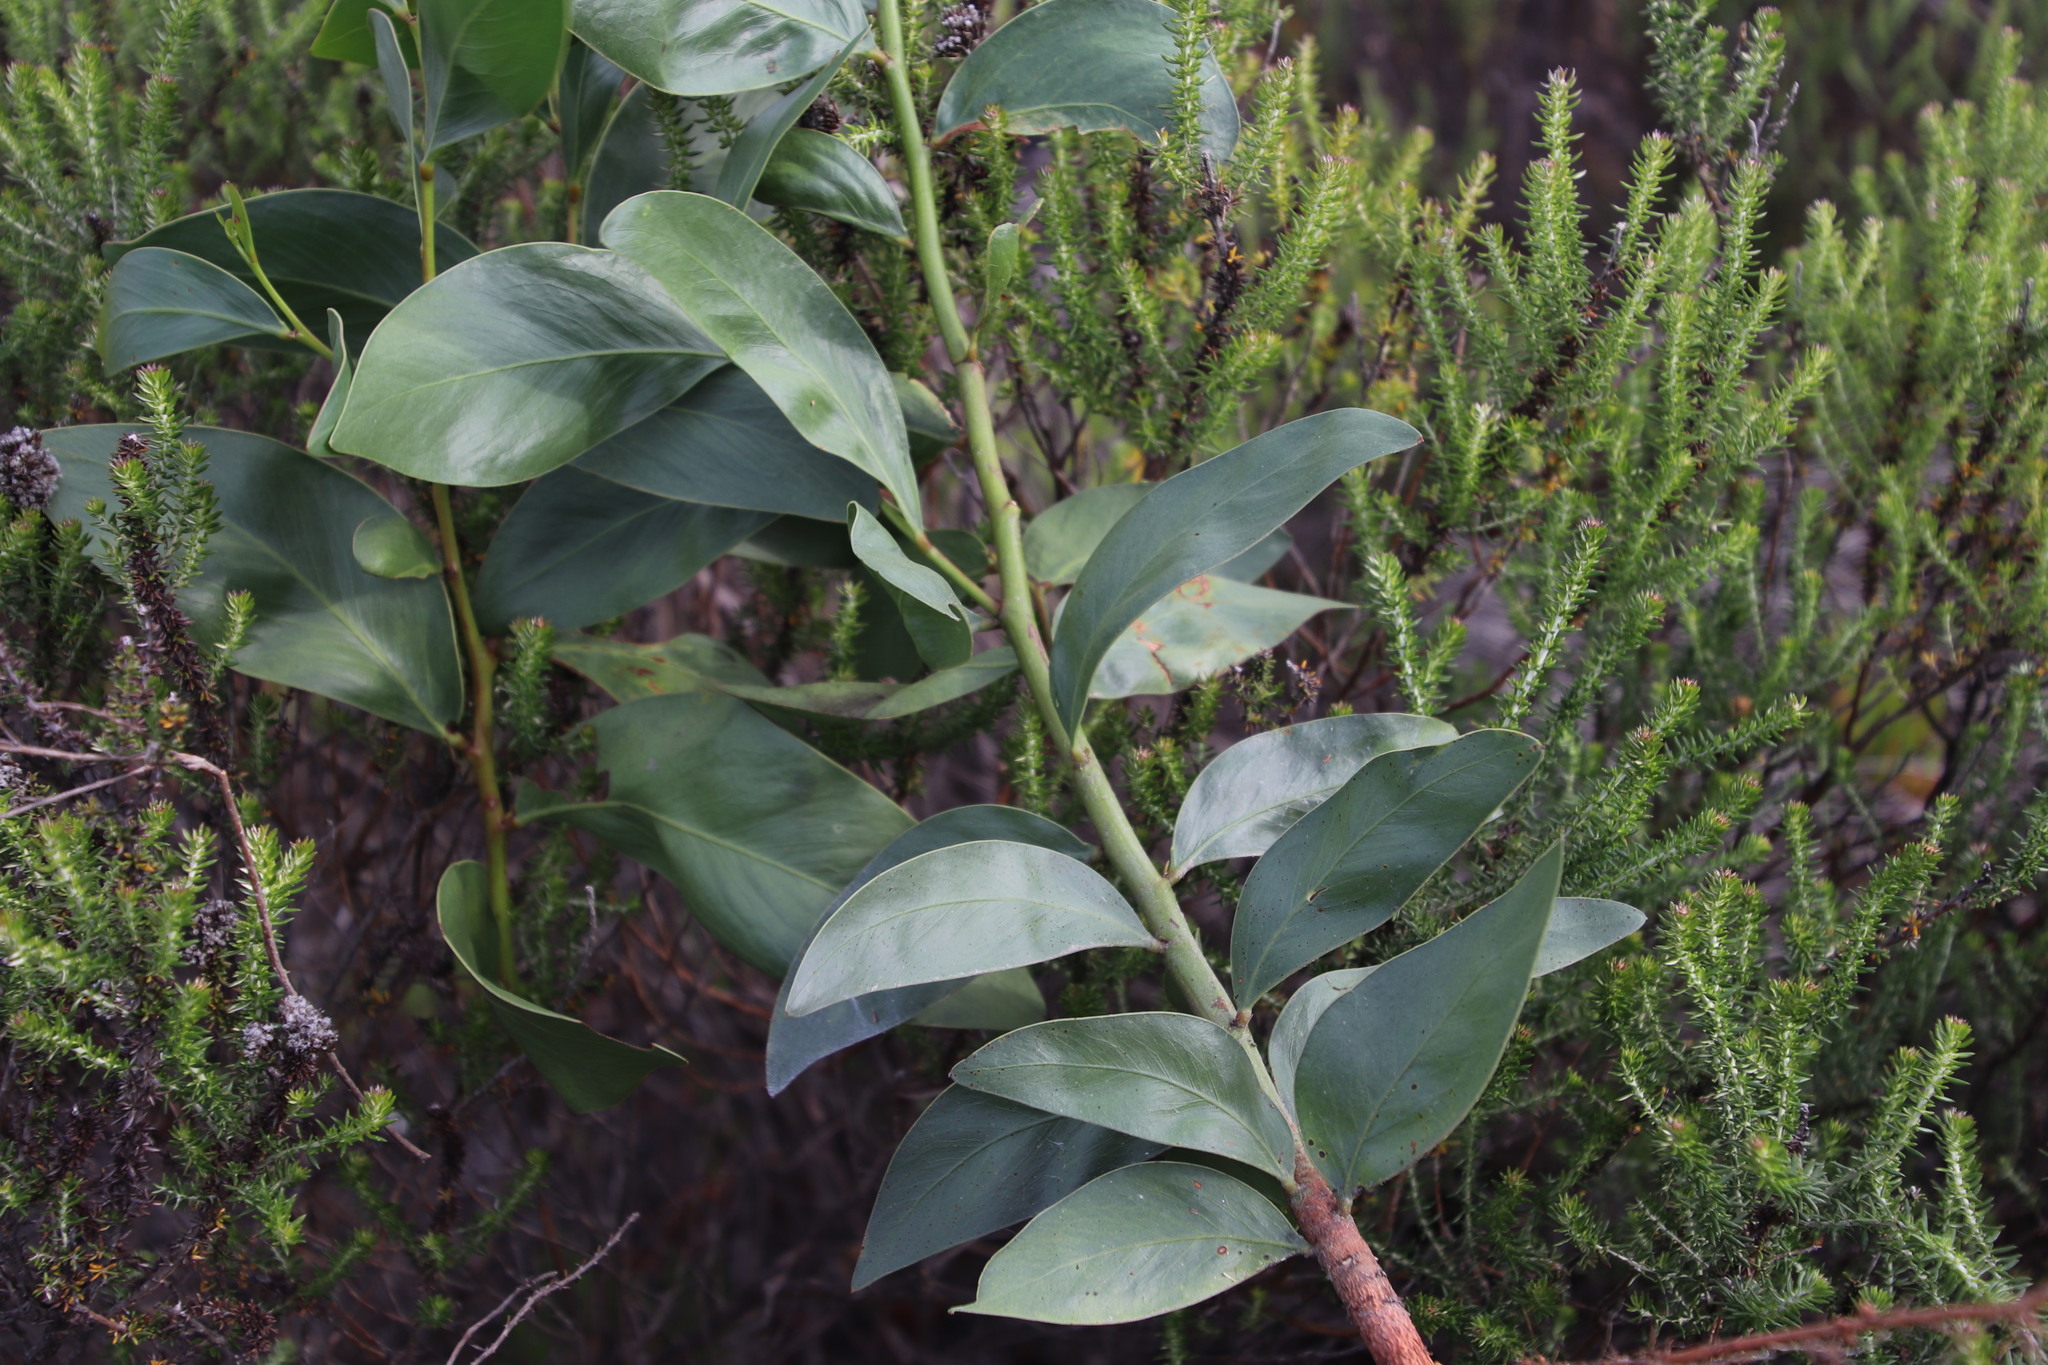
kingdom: Plantae
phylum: Tracheophyta
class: Magnoliopsida
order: Fabales
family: Fabaceae
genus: Acacia
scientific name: Acacia pycnantha
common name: Golden wattle
